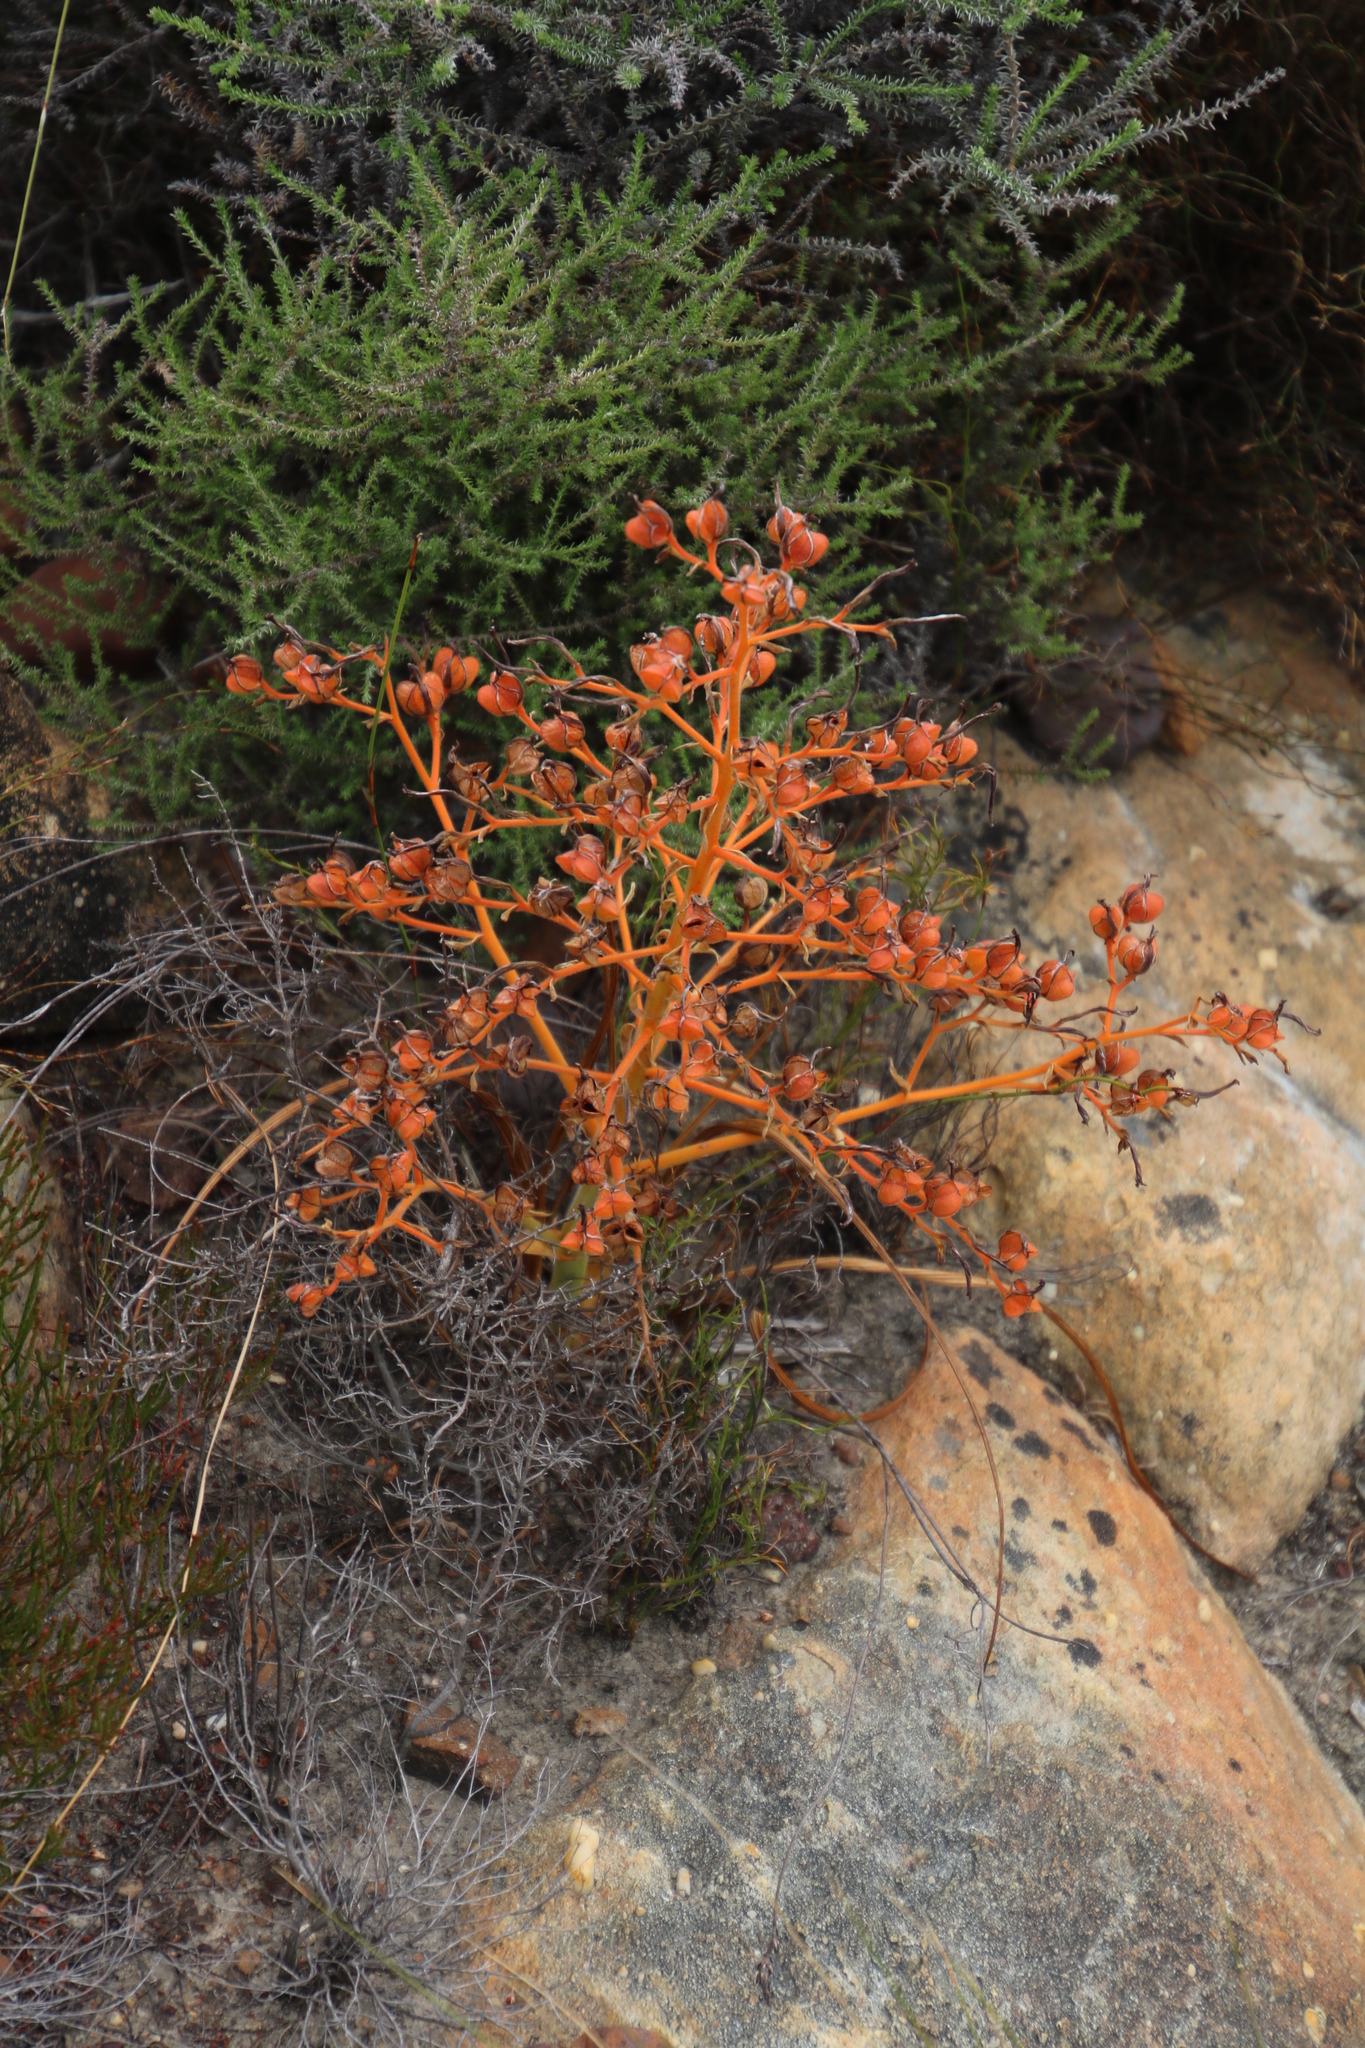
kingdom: Plantae
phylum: Tracheophyta
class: Liliopsida
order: Commelinales
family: Haemodoraceae
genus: Wachendorfia
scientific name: Wachendorfia paniculata
